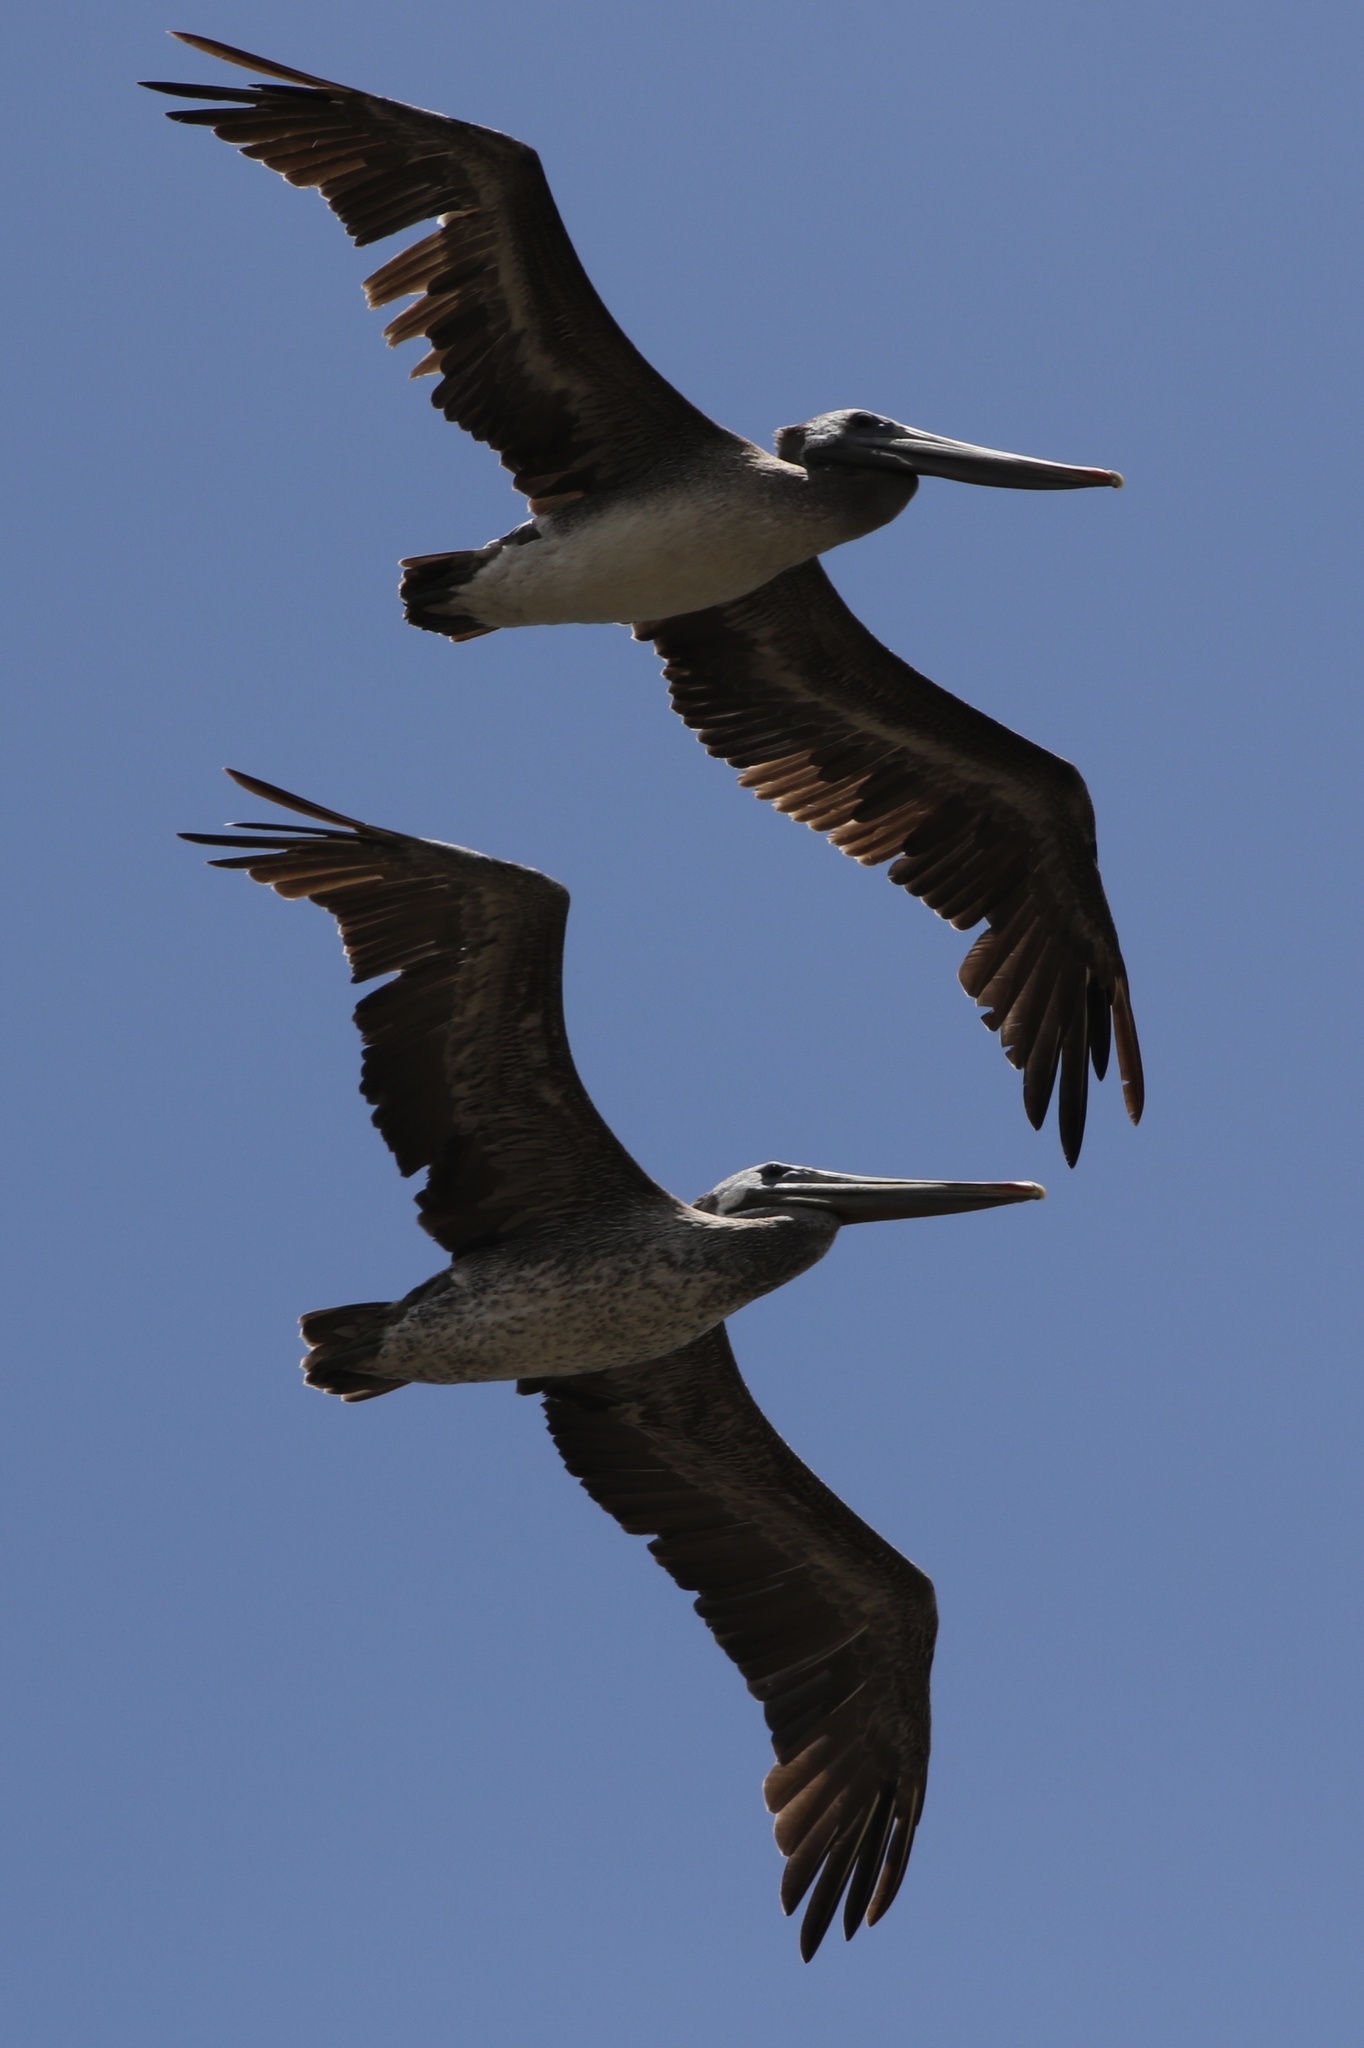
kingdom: Animalia
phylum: Chordata
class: Aves
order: Pelecaniformes
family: Pelecanidae
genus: Pelecanus
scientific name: Pelecanus occidentalis
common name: Brown pelican
